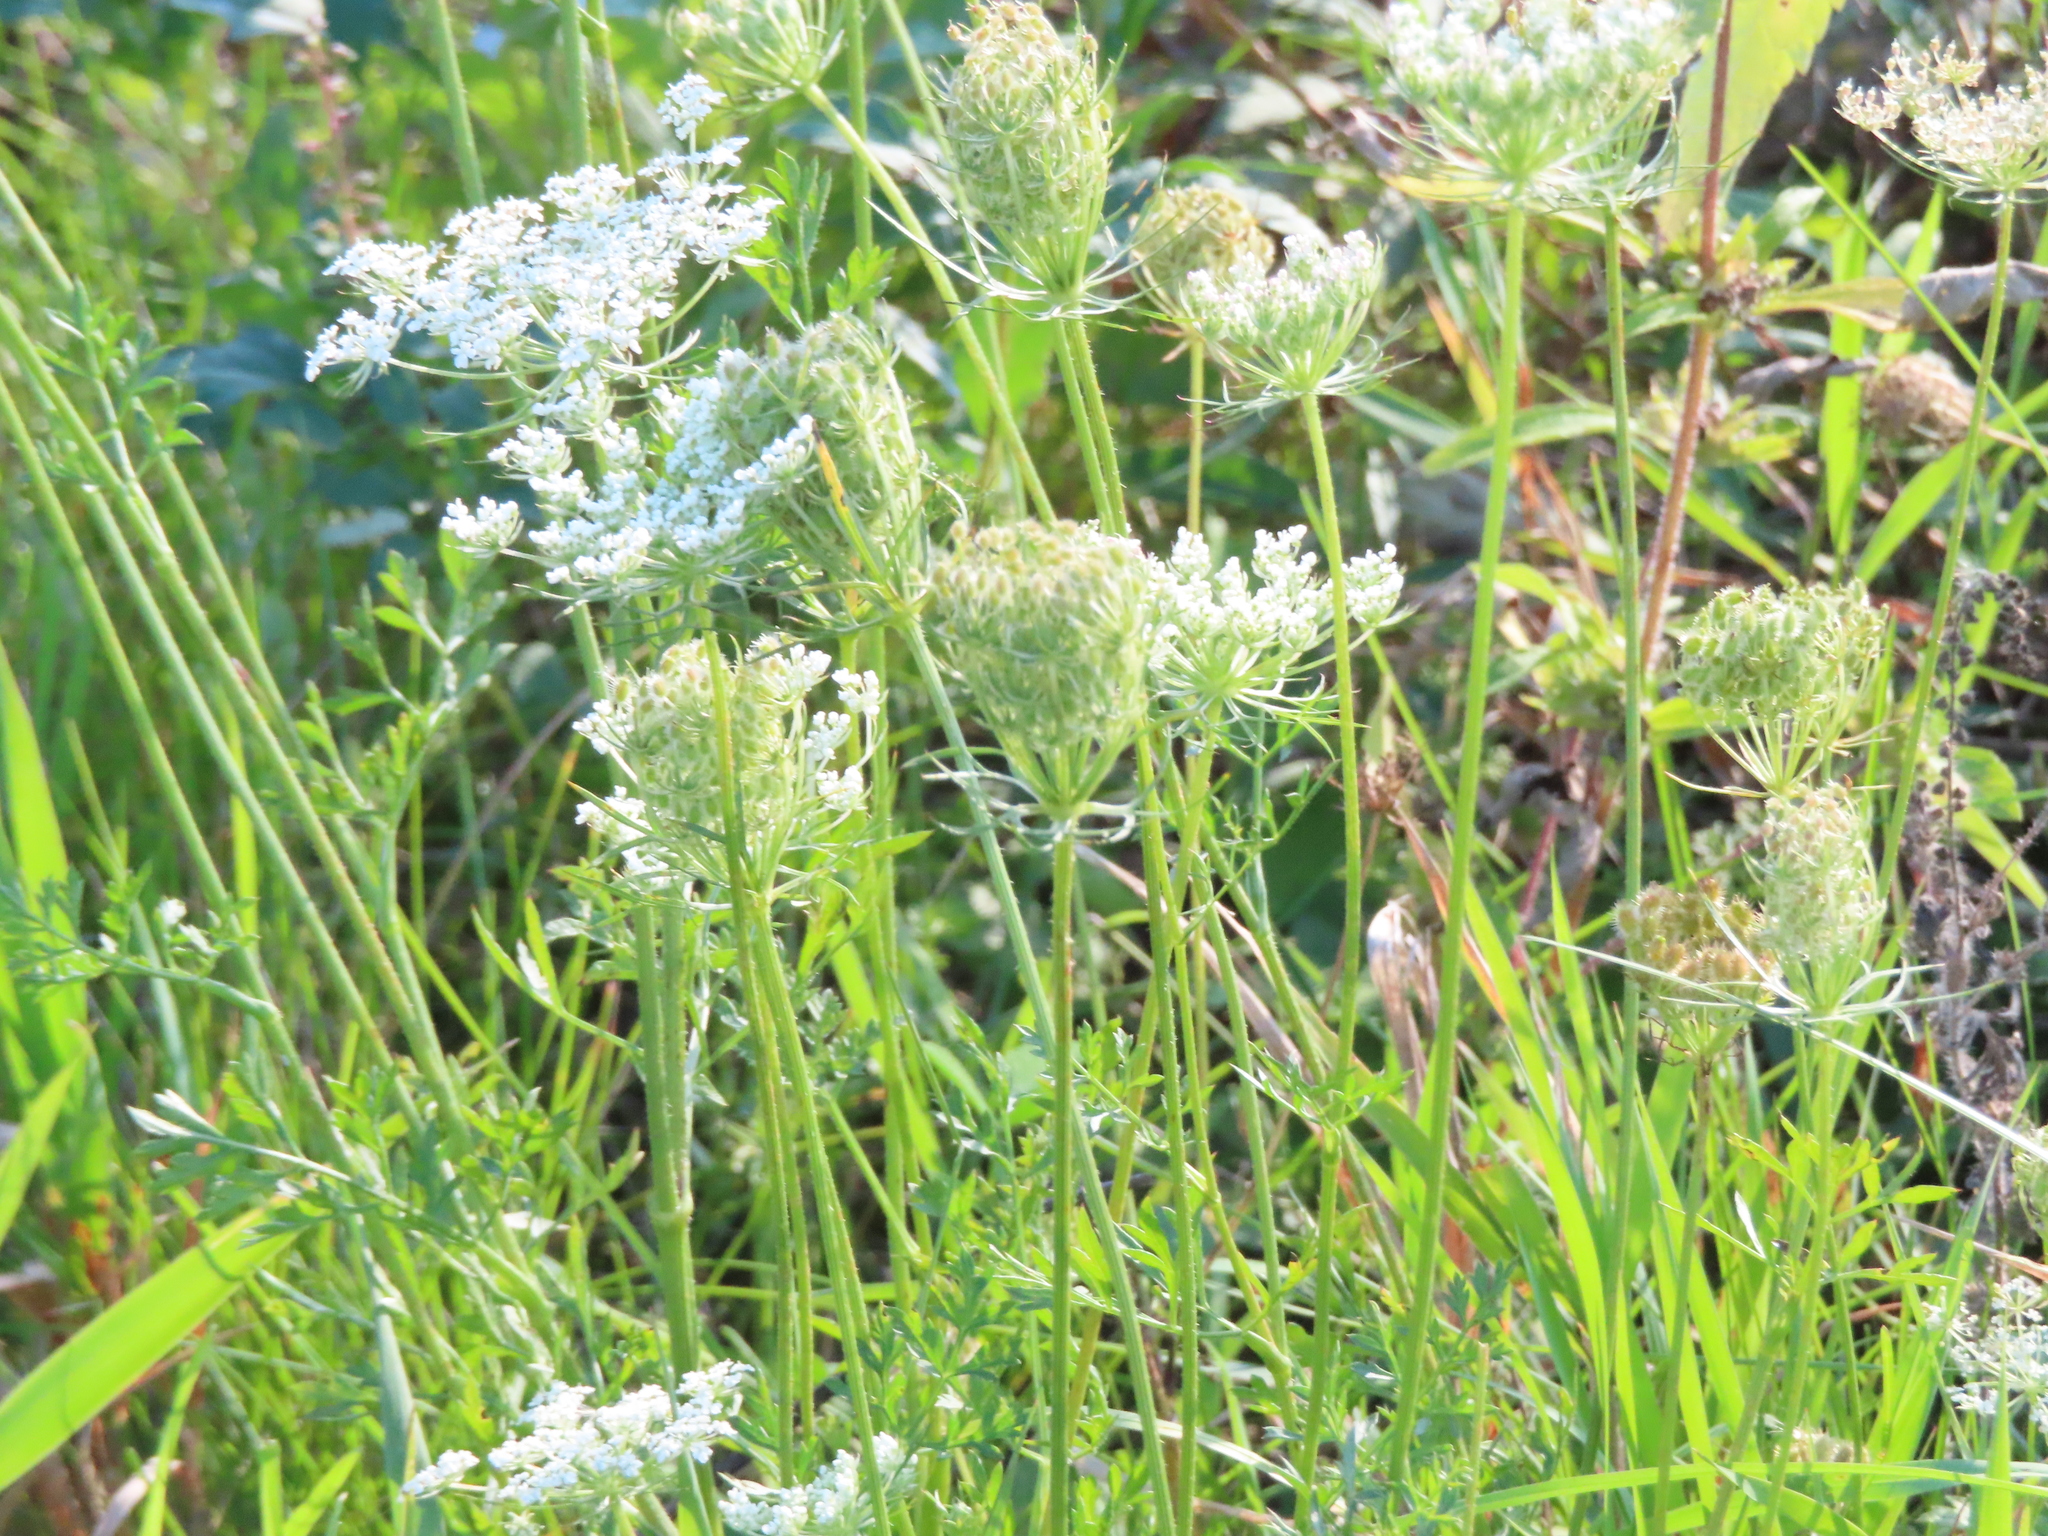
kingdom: Plantae
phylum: Tracheophyta
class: Magnoliopsida
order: Apiales
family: Apiaceae
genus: Daucus
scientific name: Daucus carota
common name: Wild carrot
